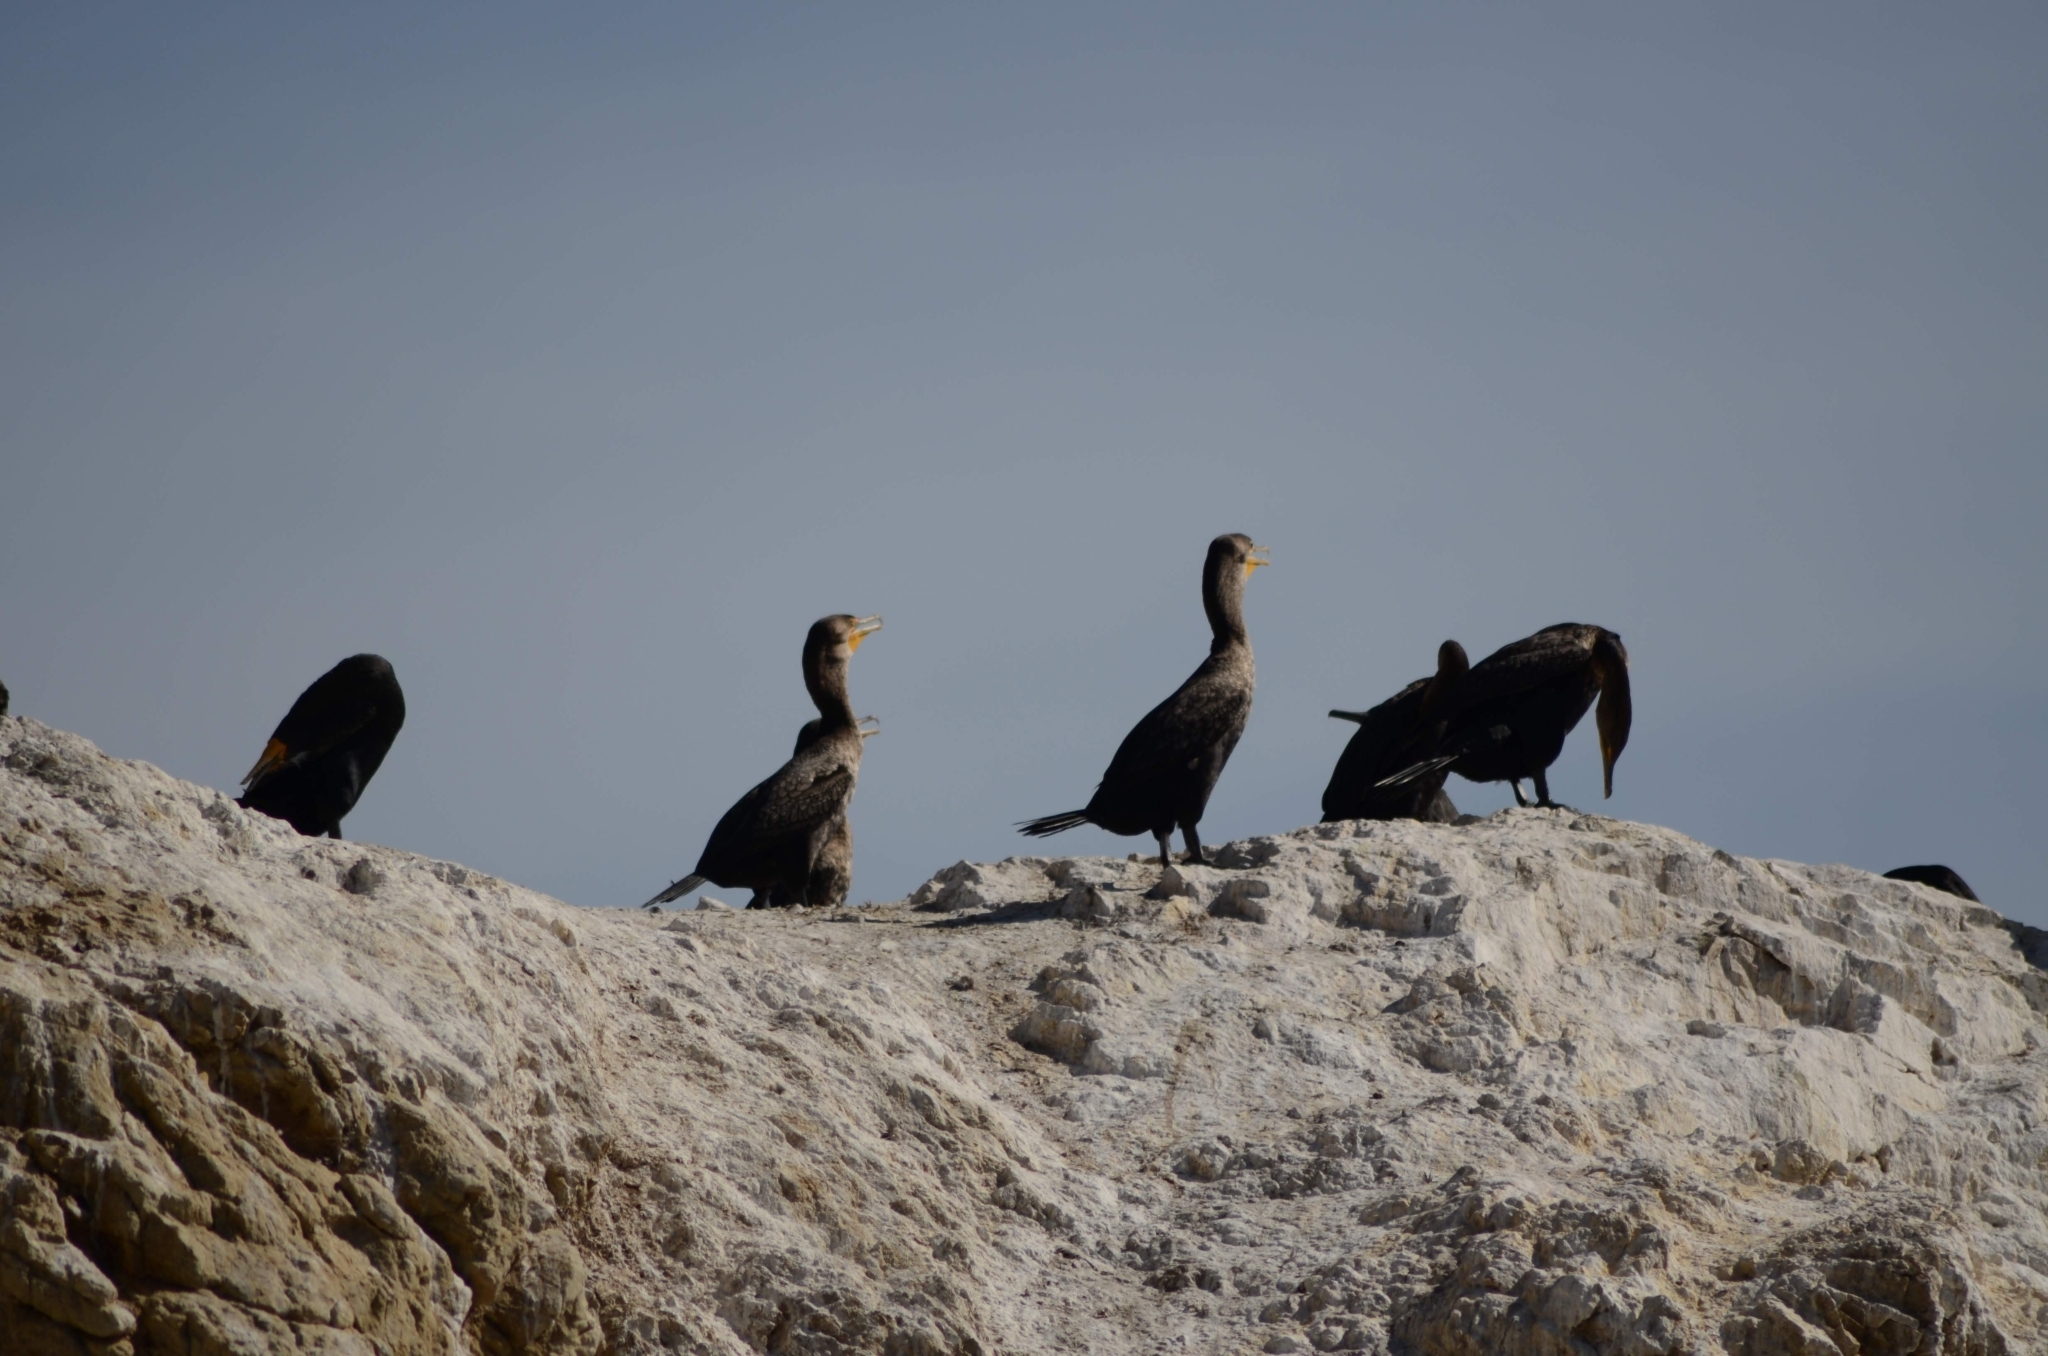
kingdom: Animalia
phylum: Chordata
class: Aves
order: Suliformes
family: Phalacrocoracidae
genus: Phalacrocorax
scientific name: Phalacrocorax auritus
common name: Double-crested cormorant
